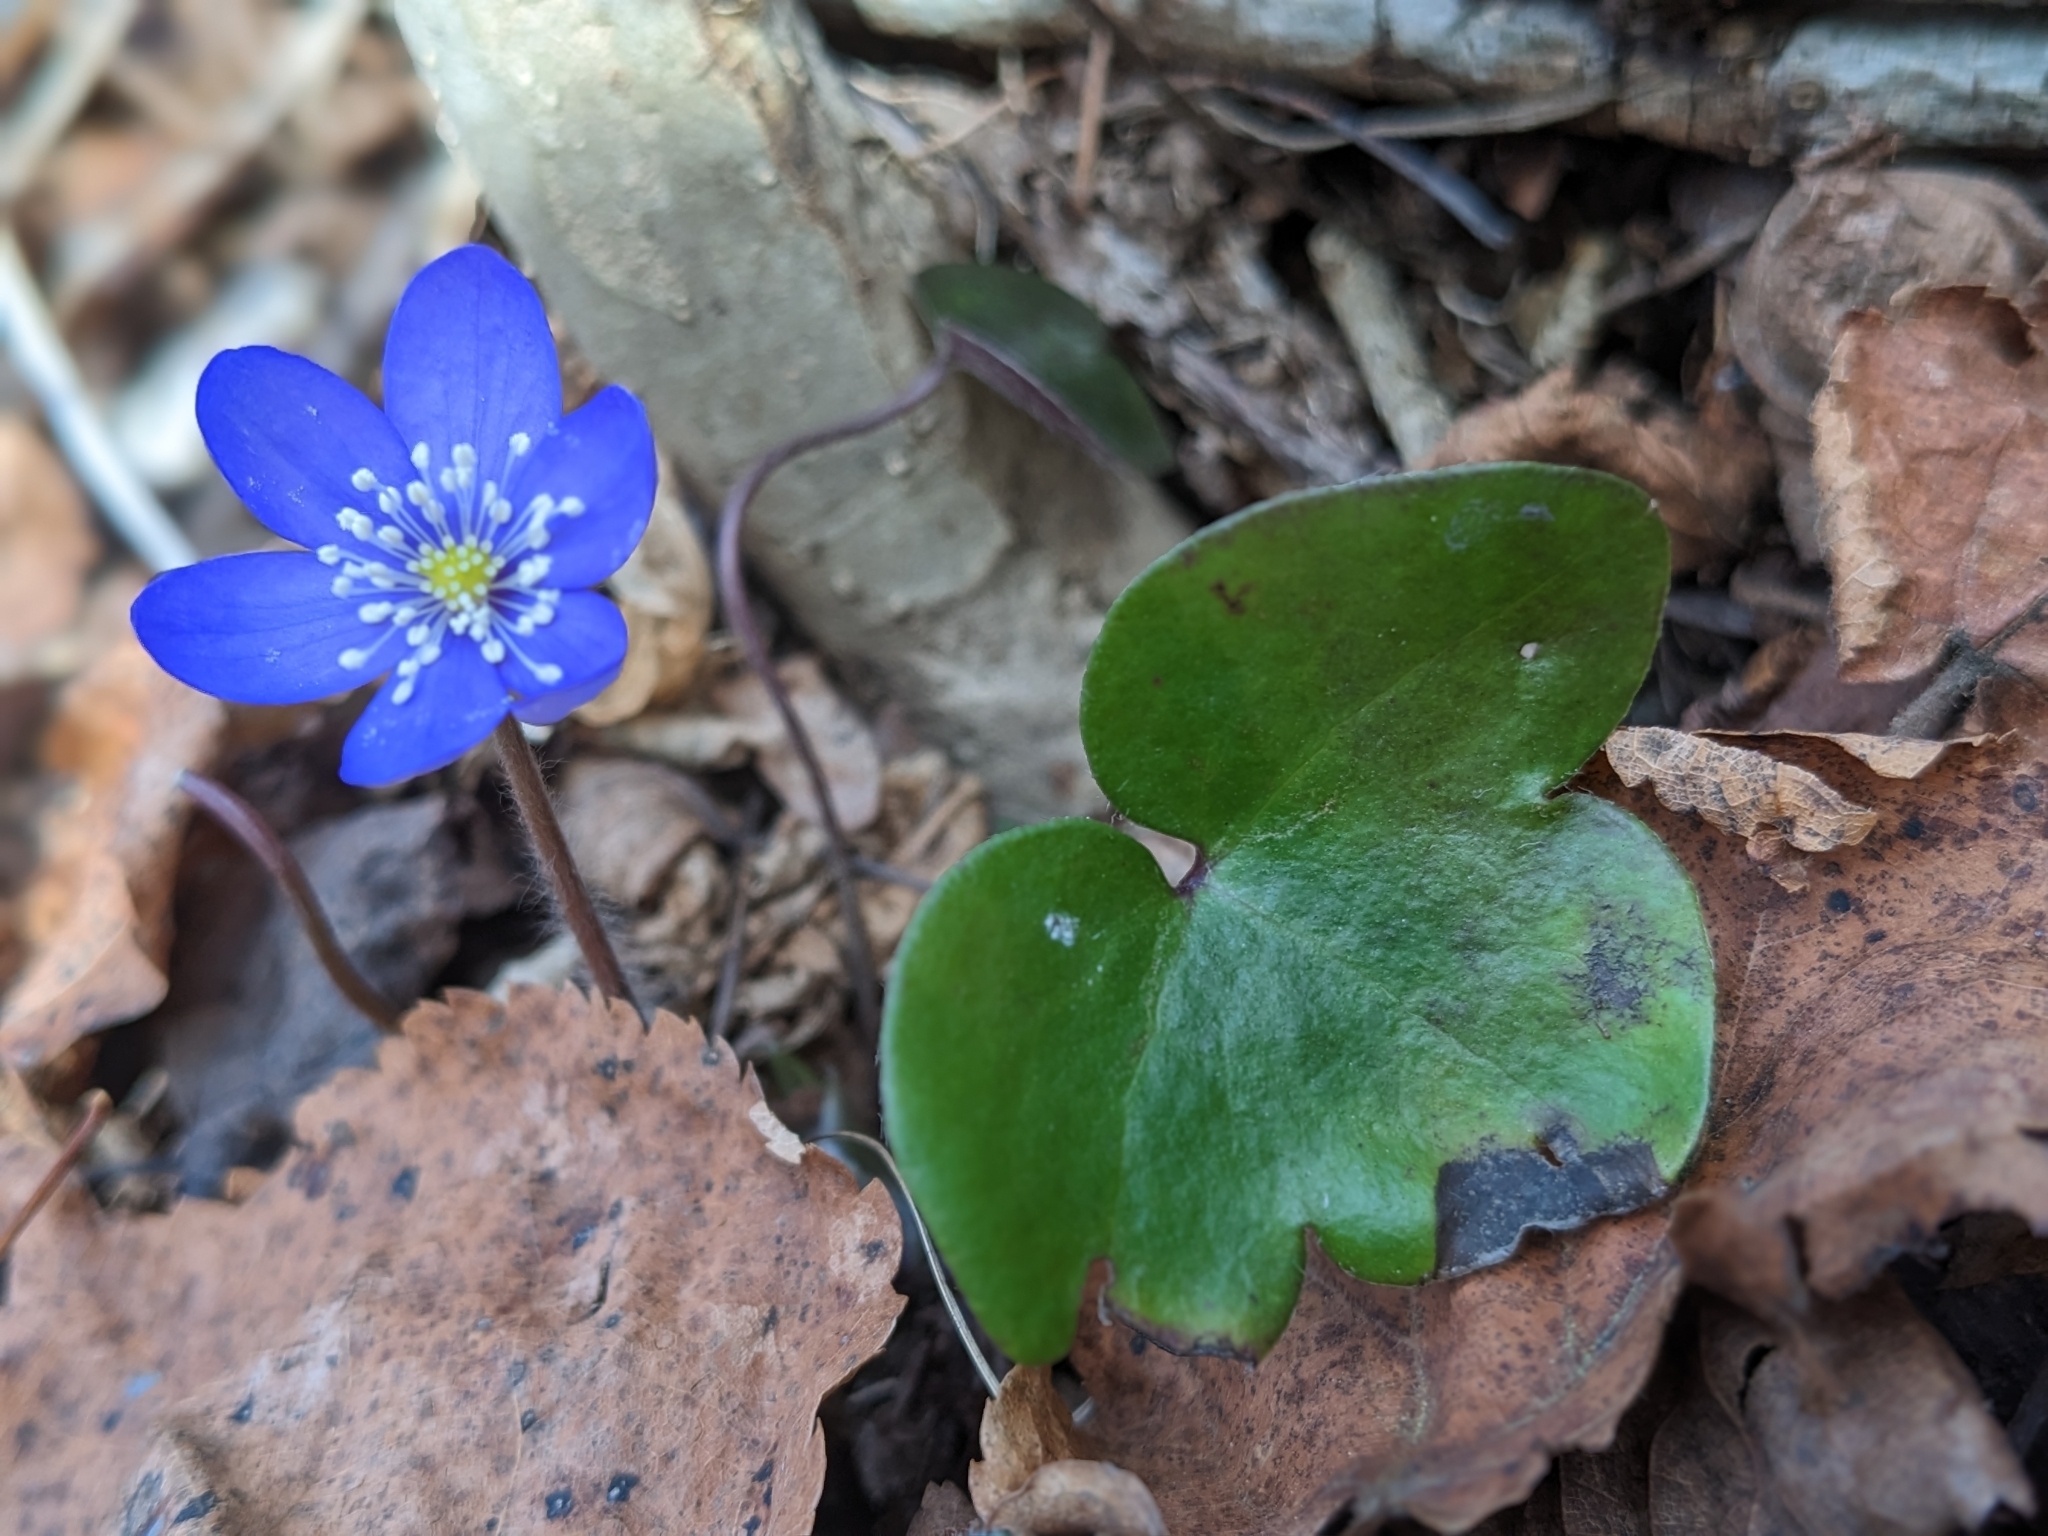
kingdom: Plantae
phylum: Tracheophyta
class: Magnoliopsida
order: Ranunculales
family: Ranunculaceae
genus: Hepatica
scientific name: Hepatica nobilis
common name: Liverleaf
